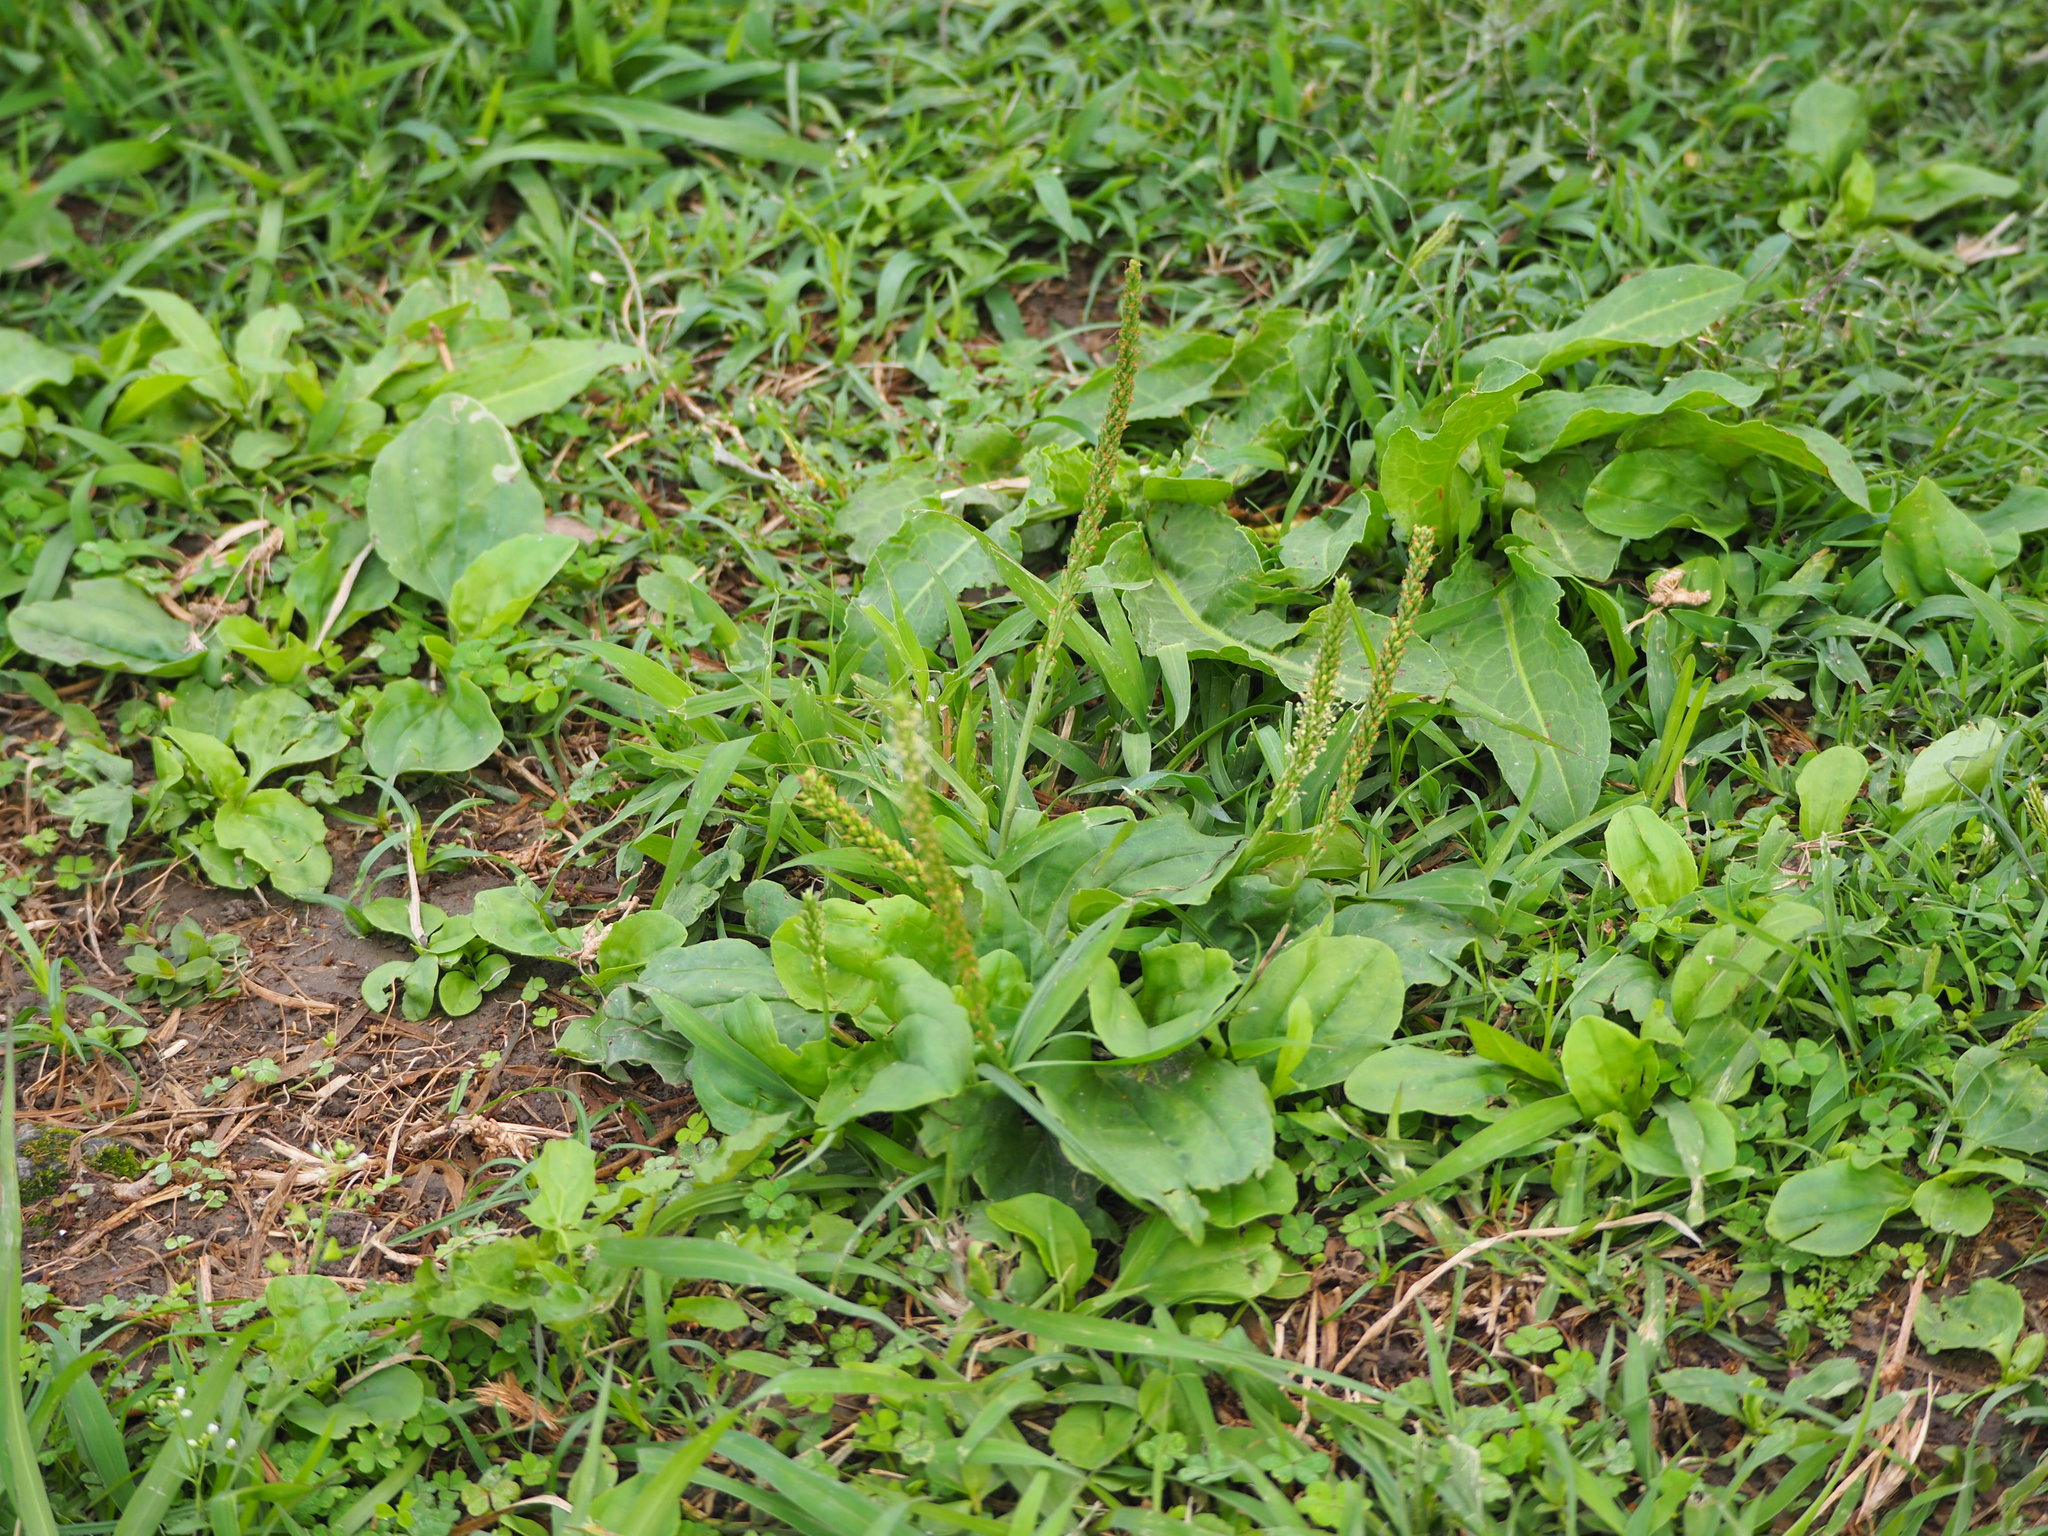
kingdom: Plantae
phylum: Tracheophyta
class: Magnoliopsida
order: Lamiales
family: Plantaginaceae
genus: Plantago
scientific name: Plantago asiatica
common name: Psyllium
